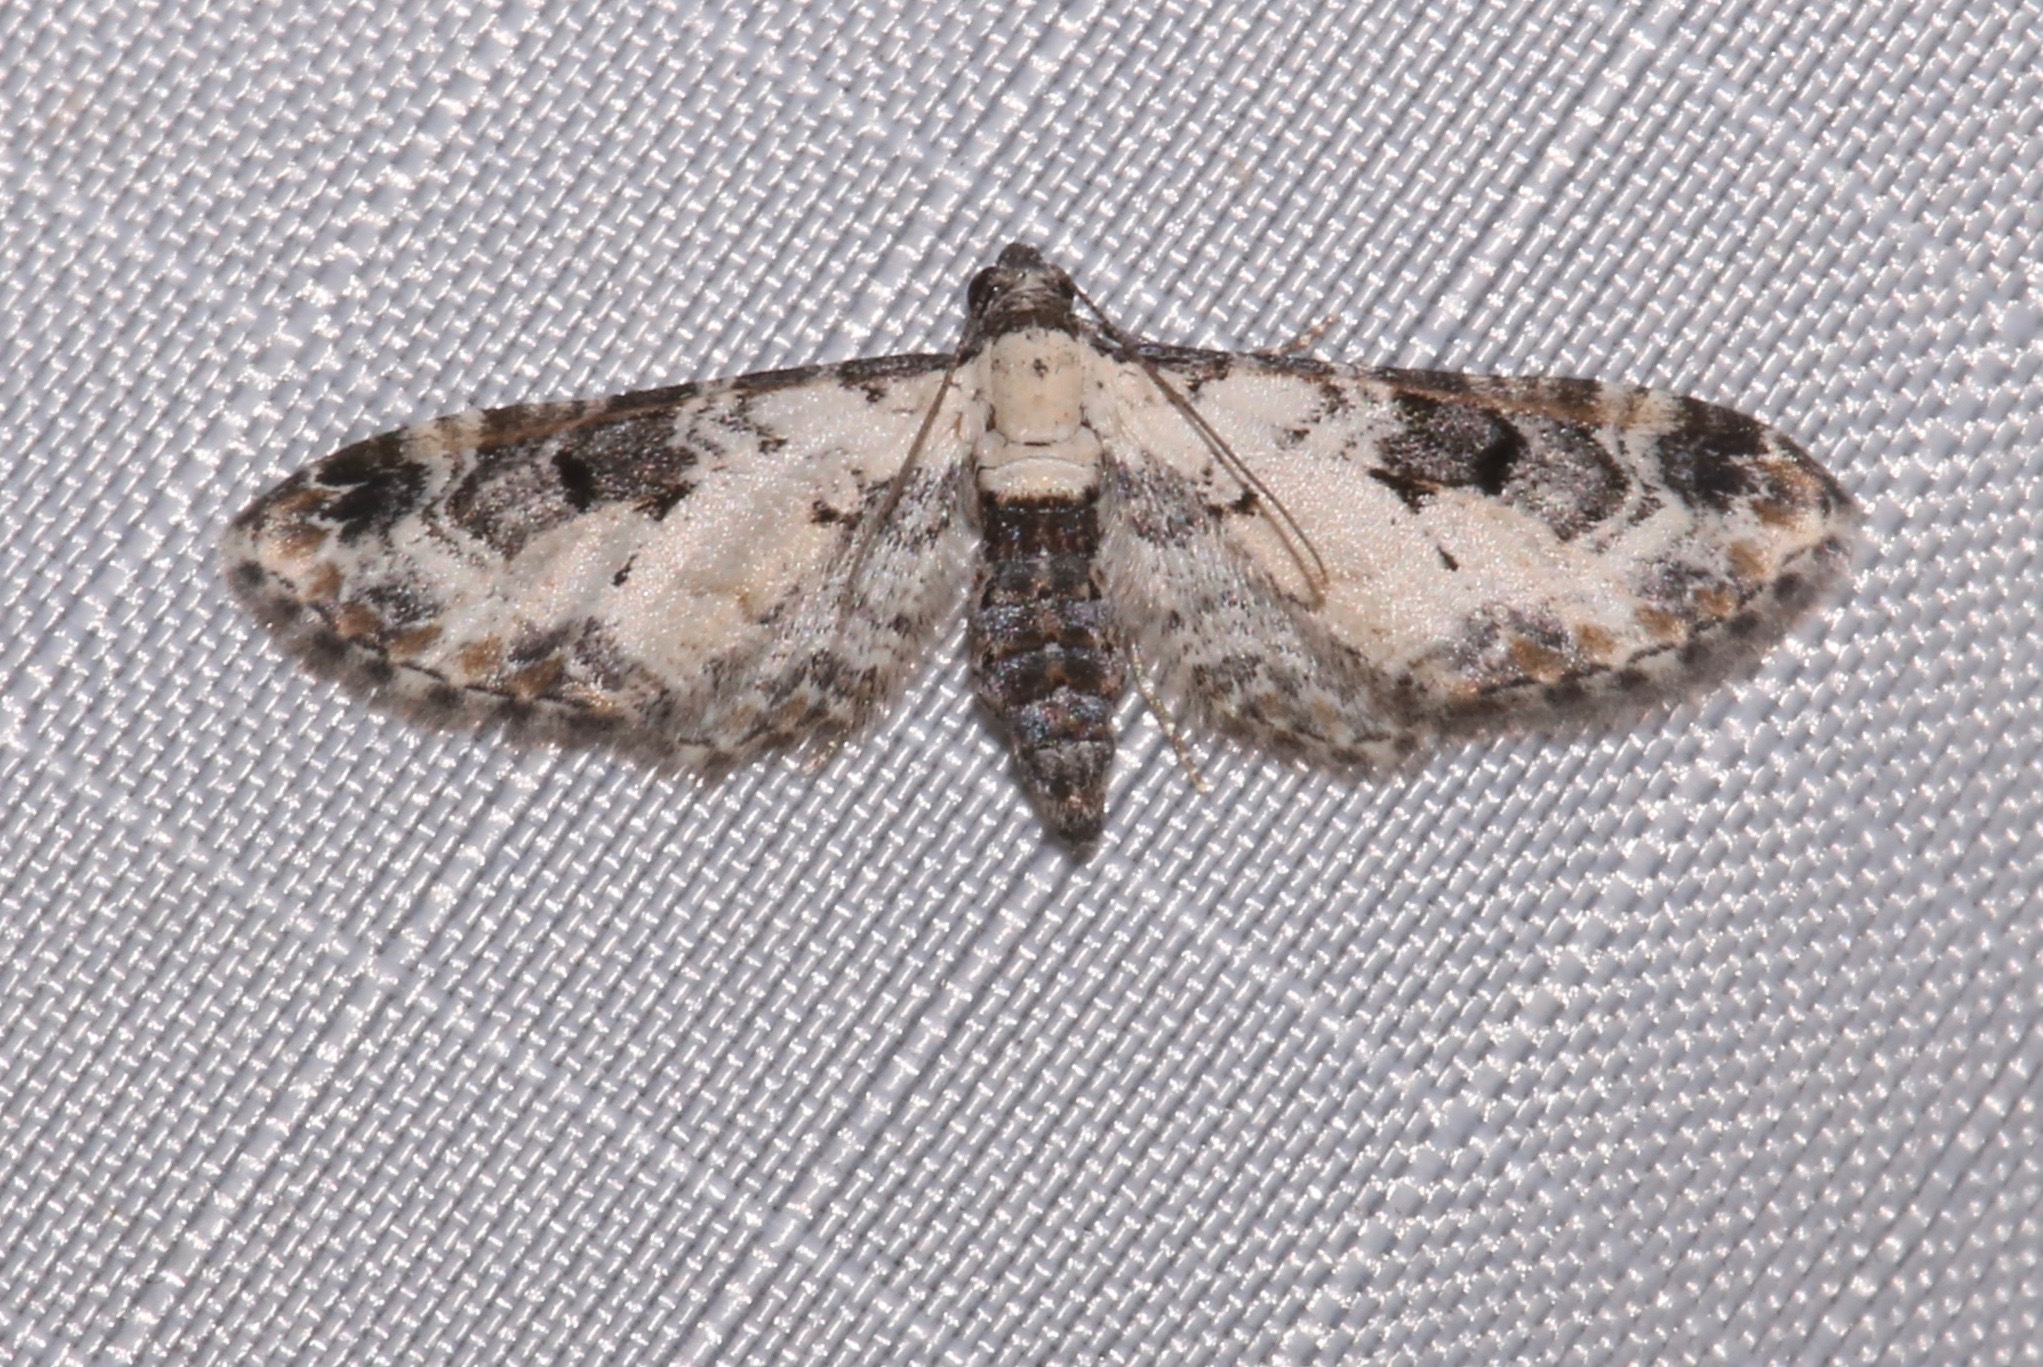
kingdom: Animalia
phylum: Arthropoda
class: Insecta
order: Lepidoptera
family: Geometridae
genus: Prorella
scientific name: Prorella gypsata
